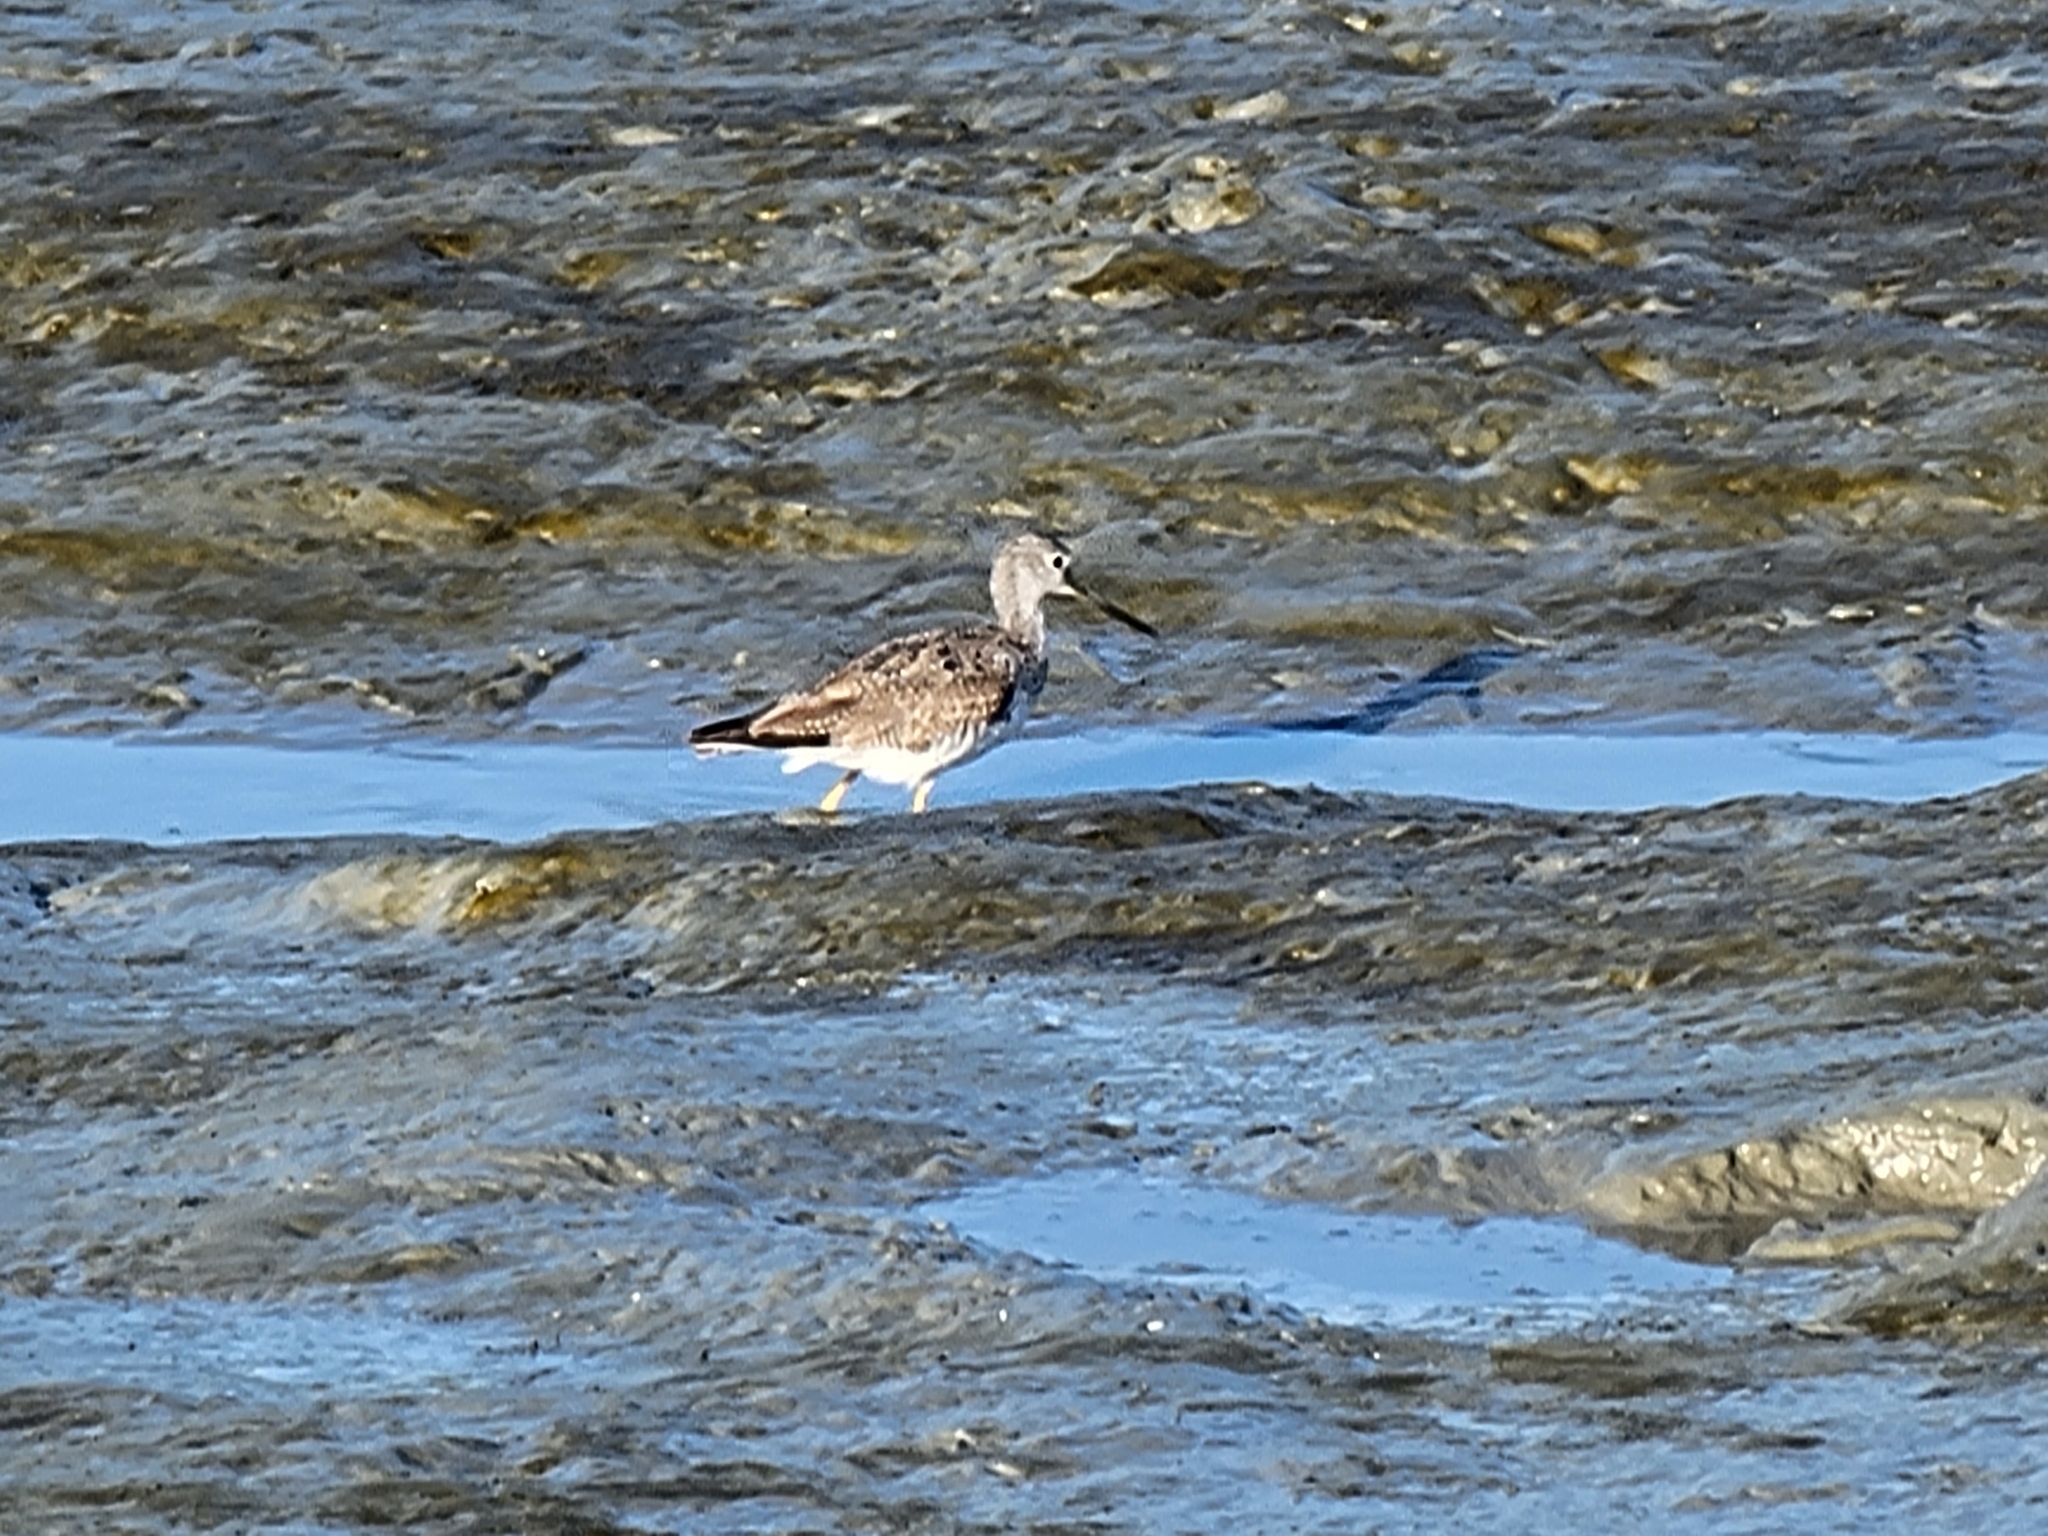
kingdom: Animalia
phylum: Chordata
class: Aves
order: Charadriiformes
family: Scolopacidae
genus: Tringa
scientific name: Tringa melanoleuca
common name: Greater yellowlegs
